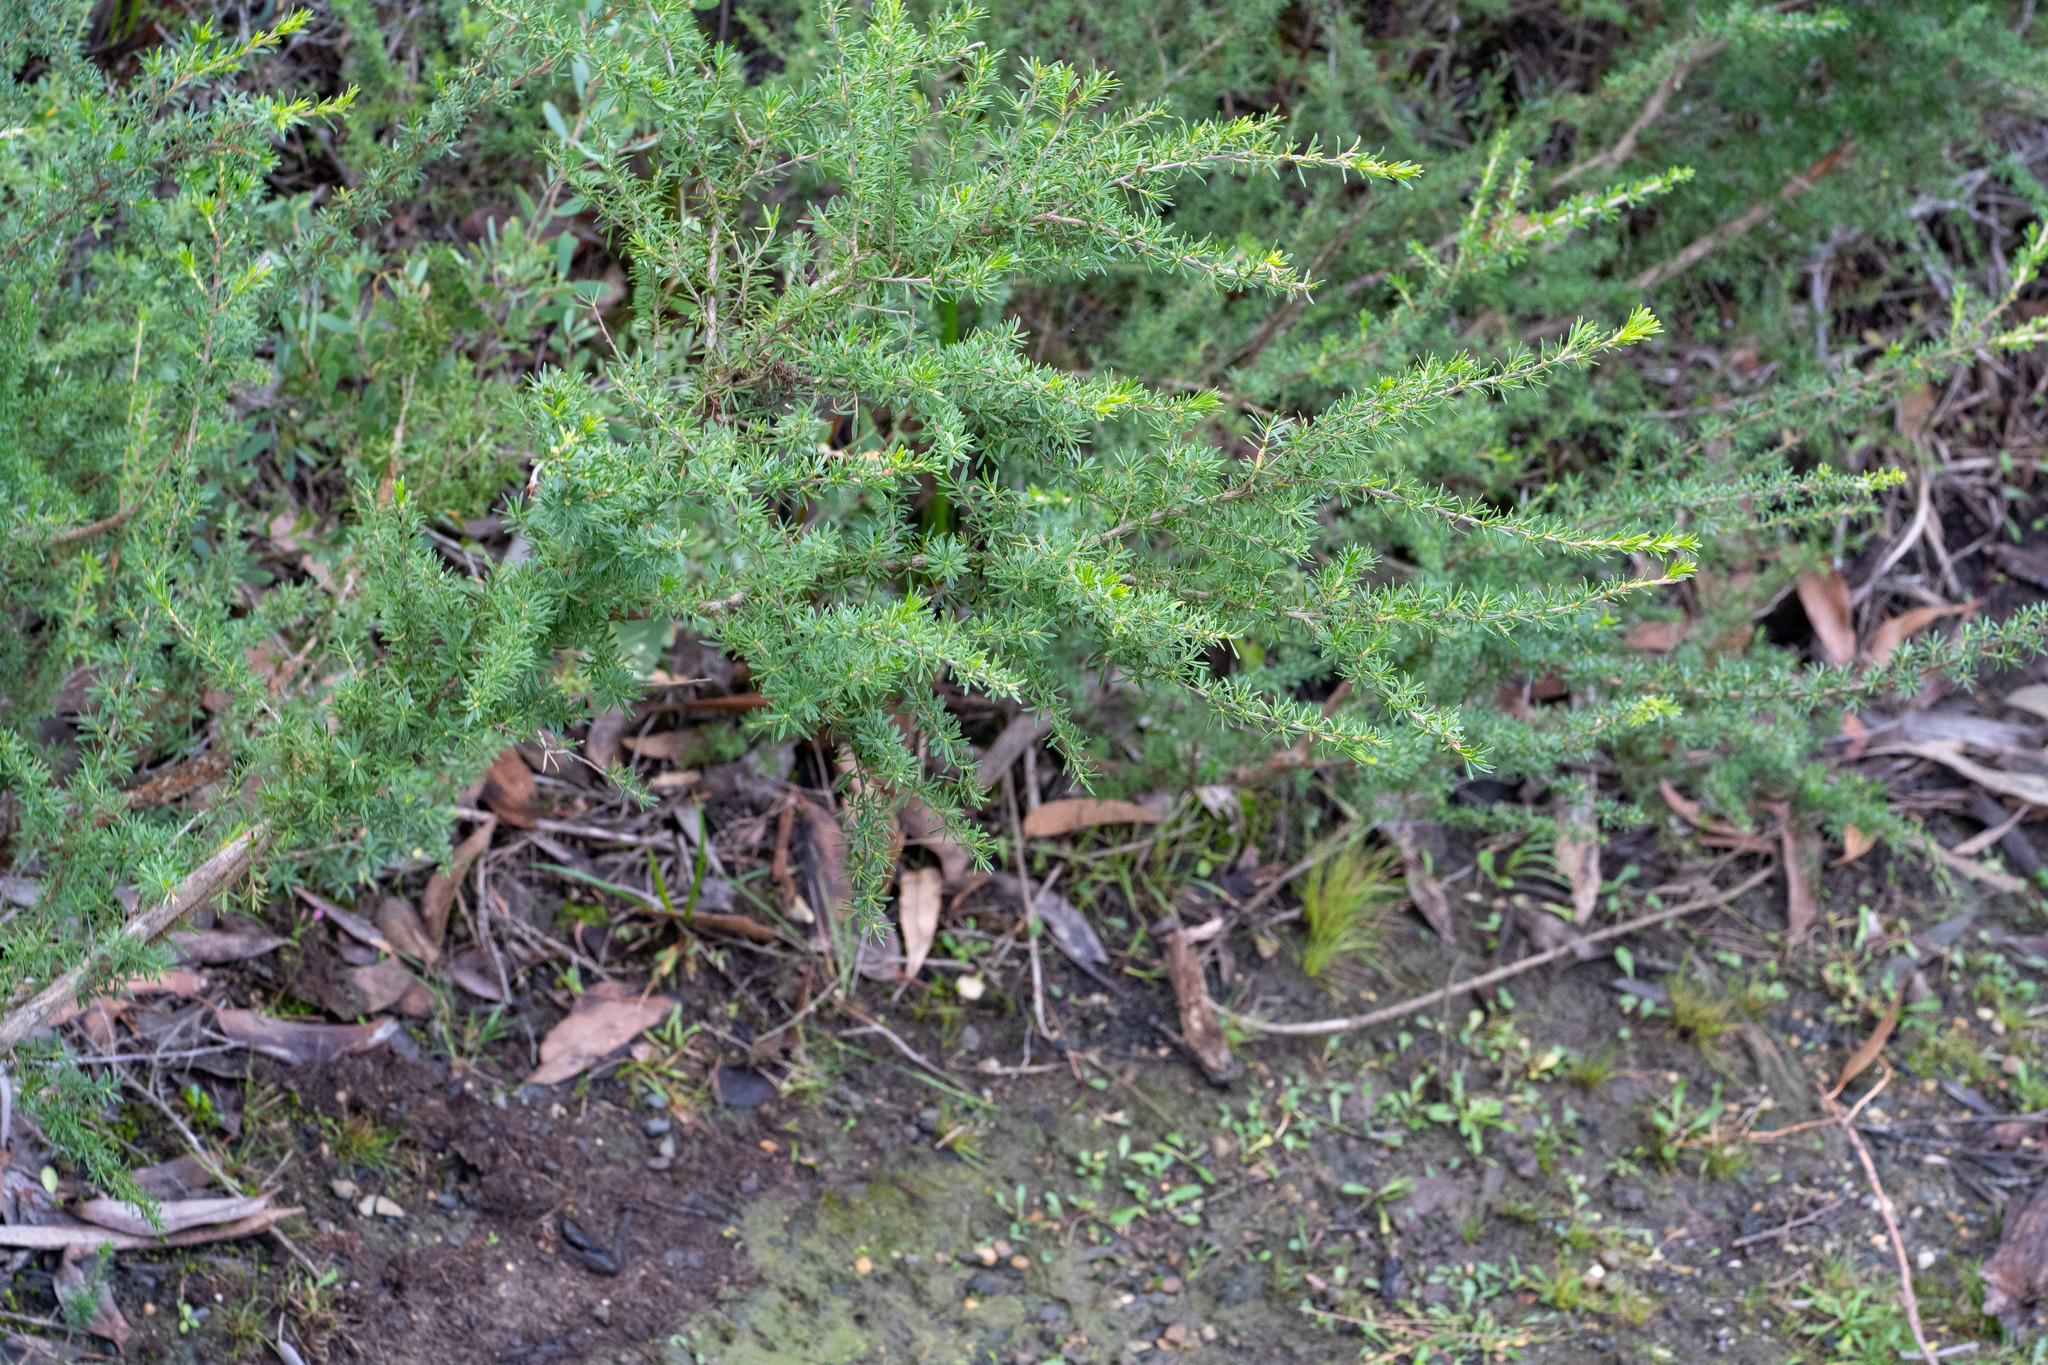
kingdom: Plantae
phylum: Tracheophyta
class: Magnoliopsida
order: Myrtales
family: Myrtaceae
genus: Kunzea
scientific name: Kunzea ambigua
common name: Tickbush
